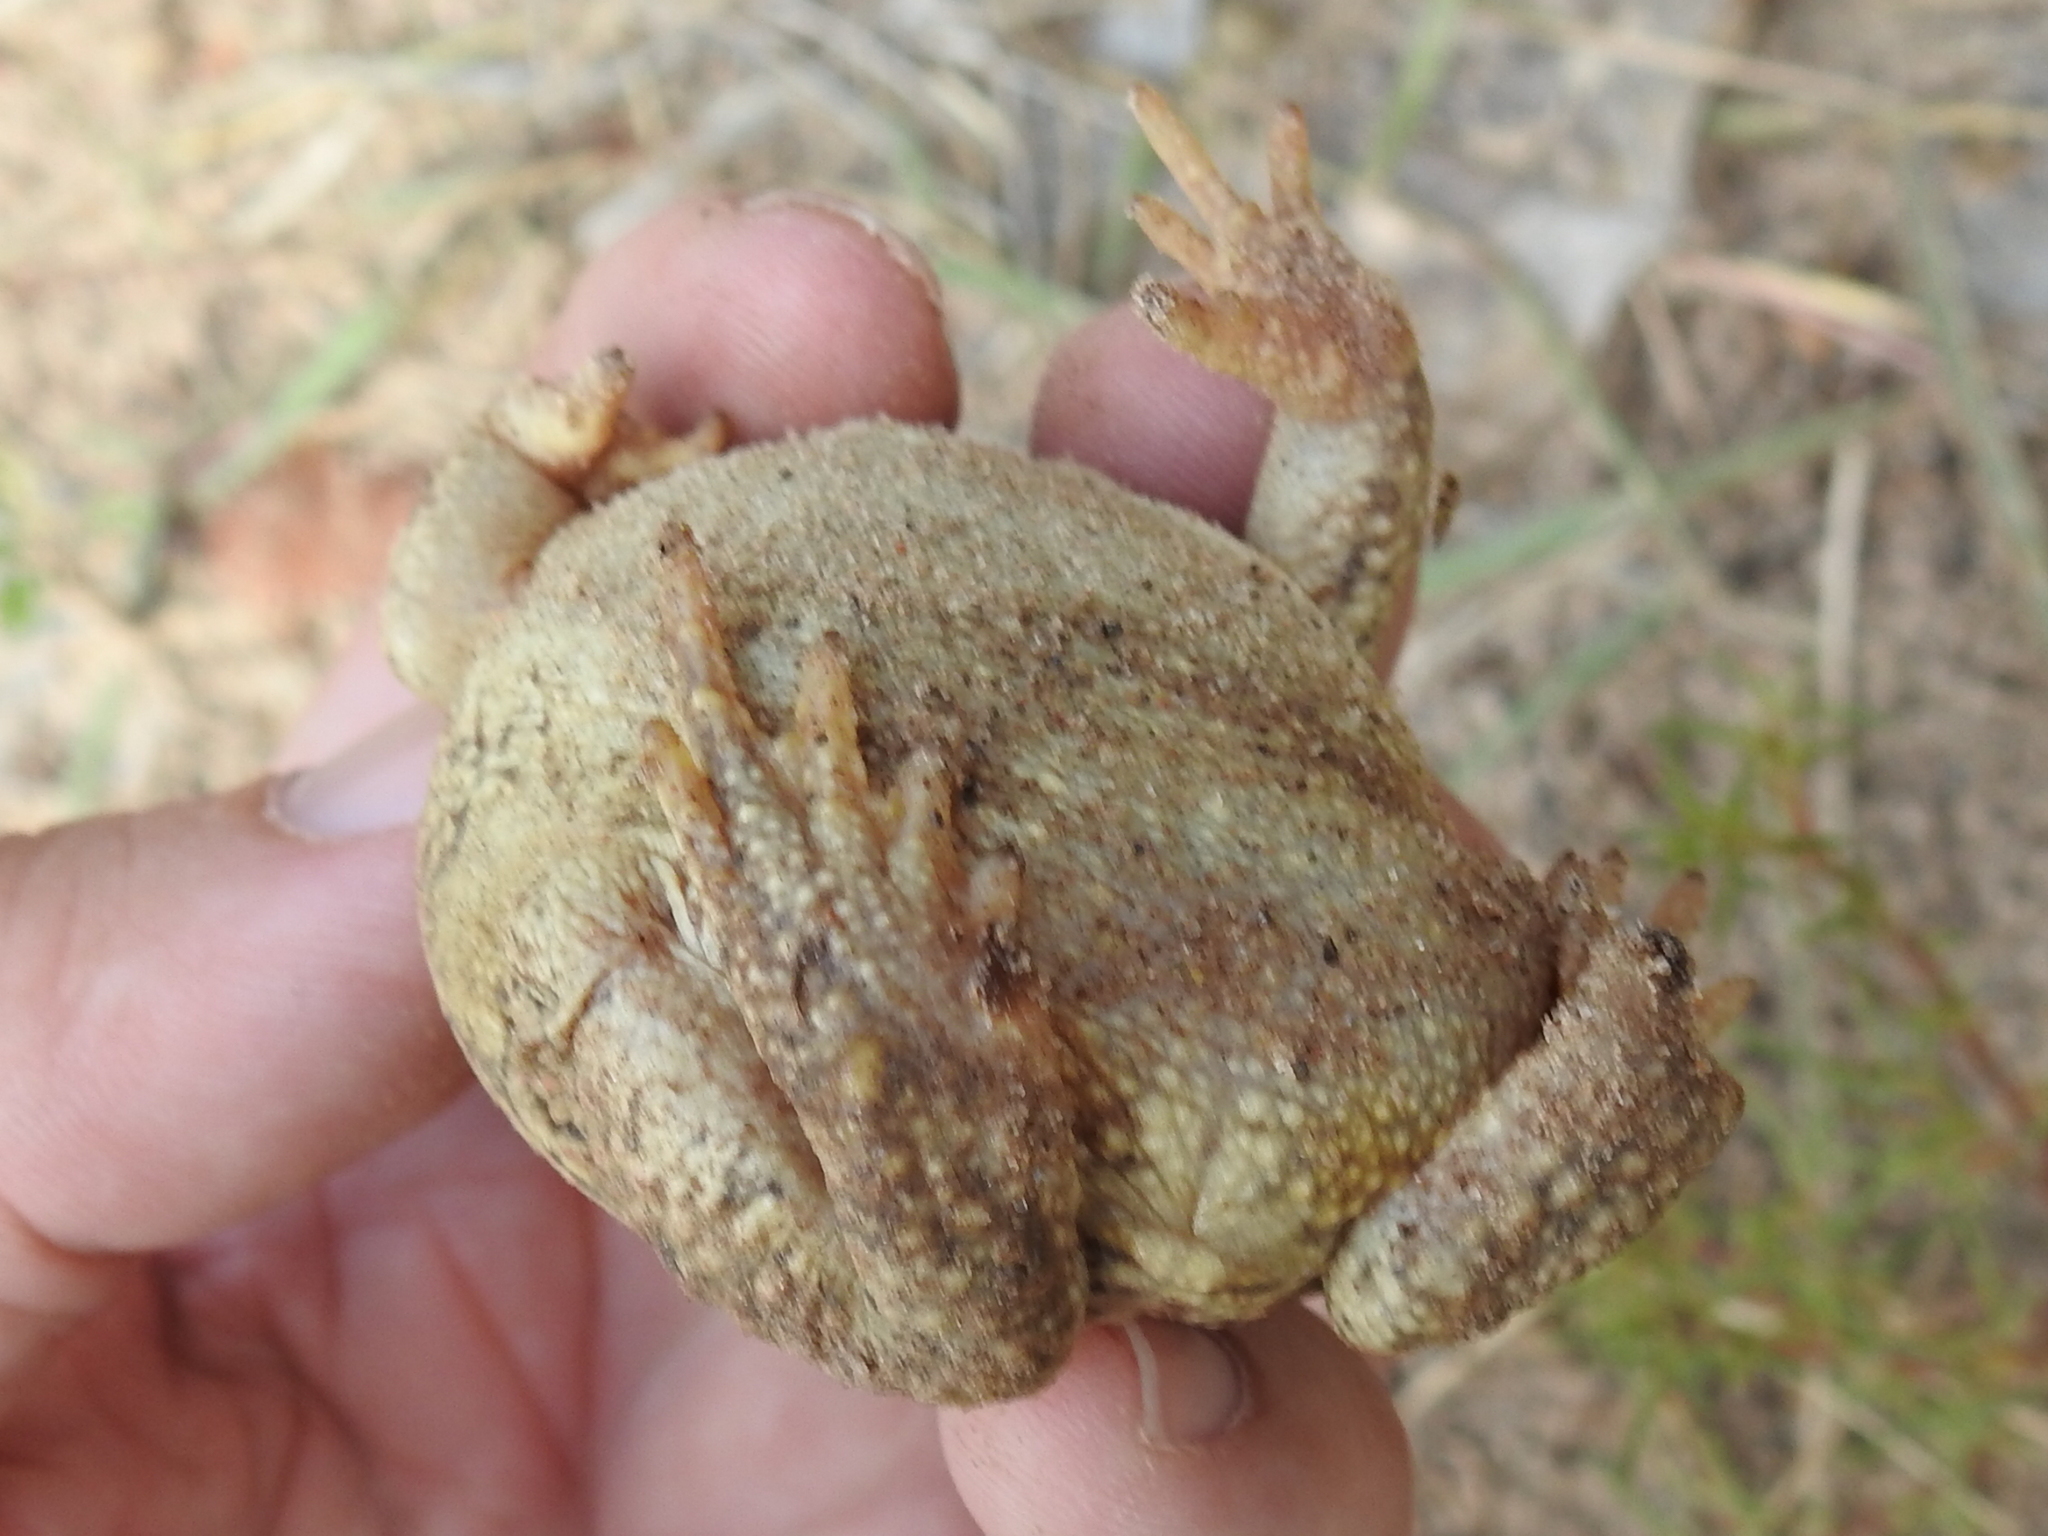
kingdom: Animalia
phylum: Chordata
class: Amphibia
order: Anura
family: Bufonidae
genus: Anaxyrus
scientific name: Anaxyrus woodhousii
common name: Woodhouse's toad
